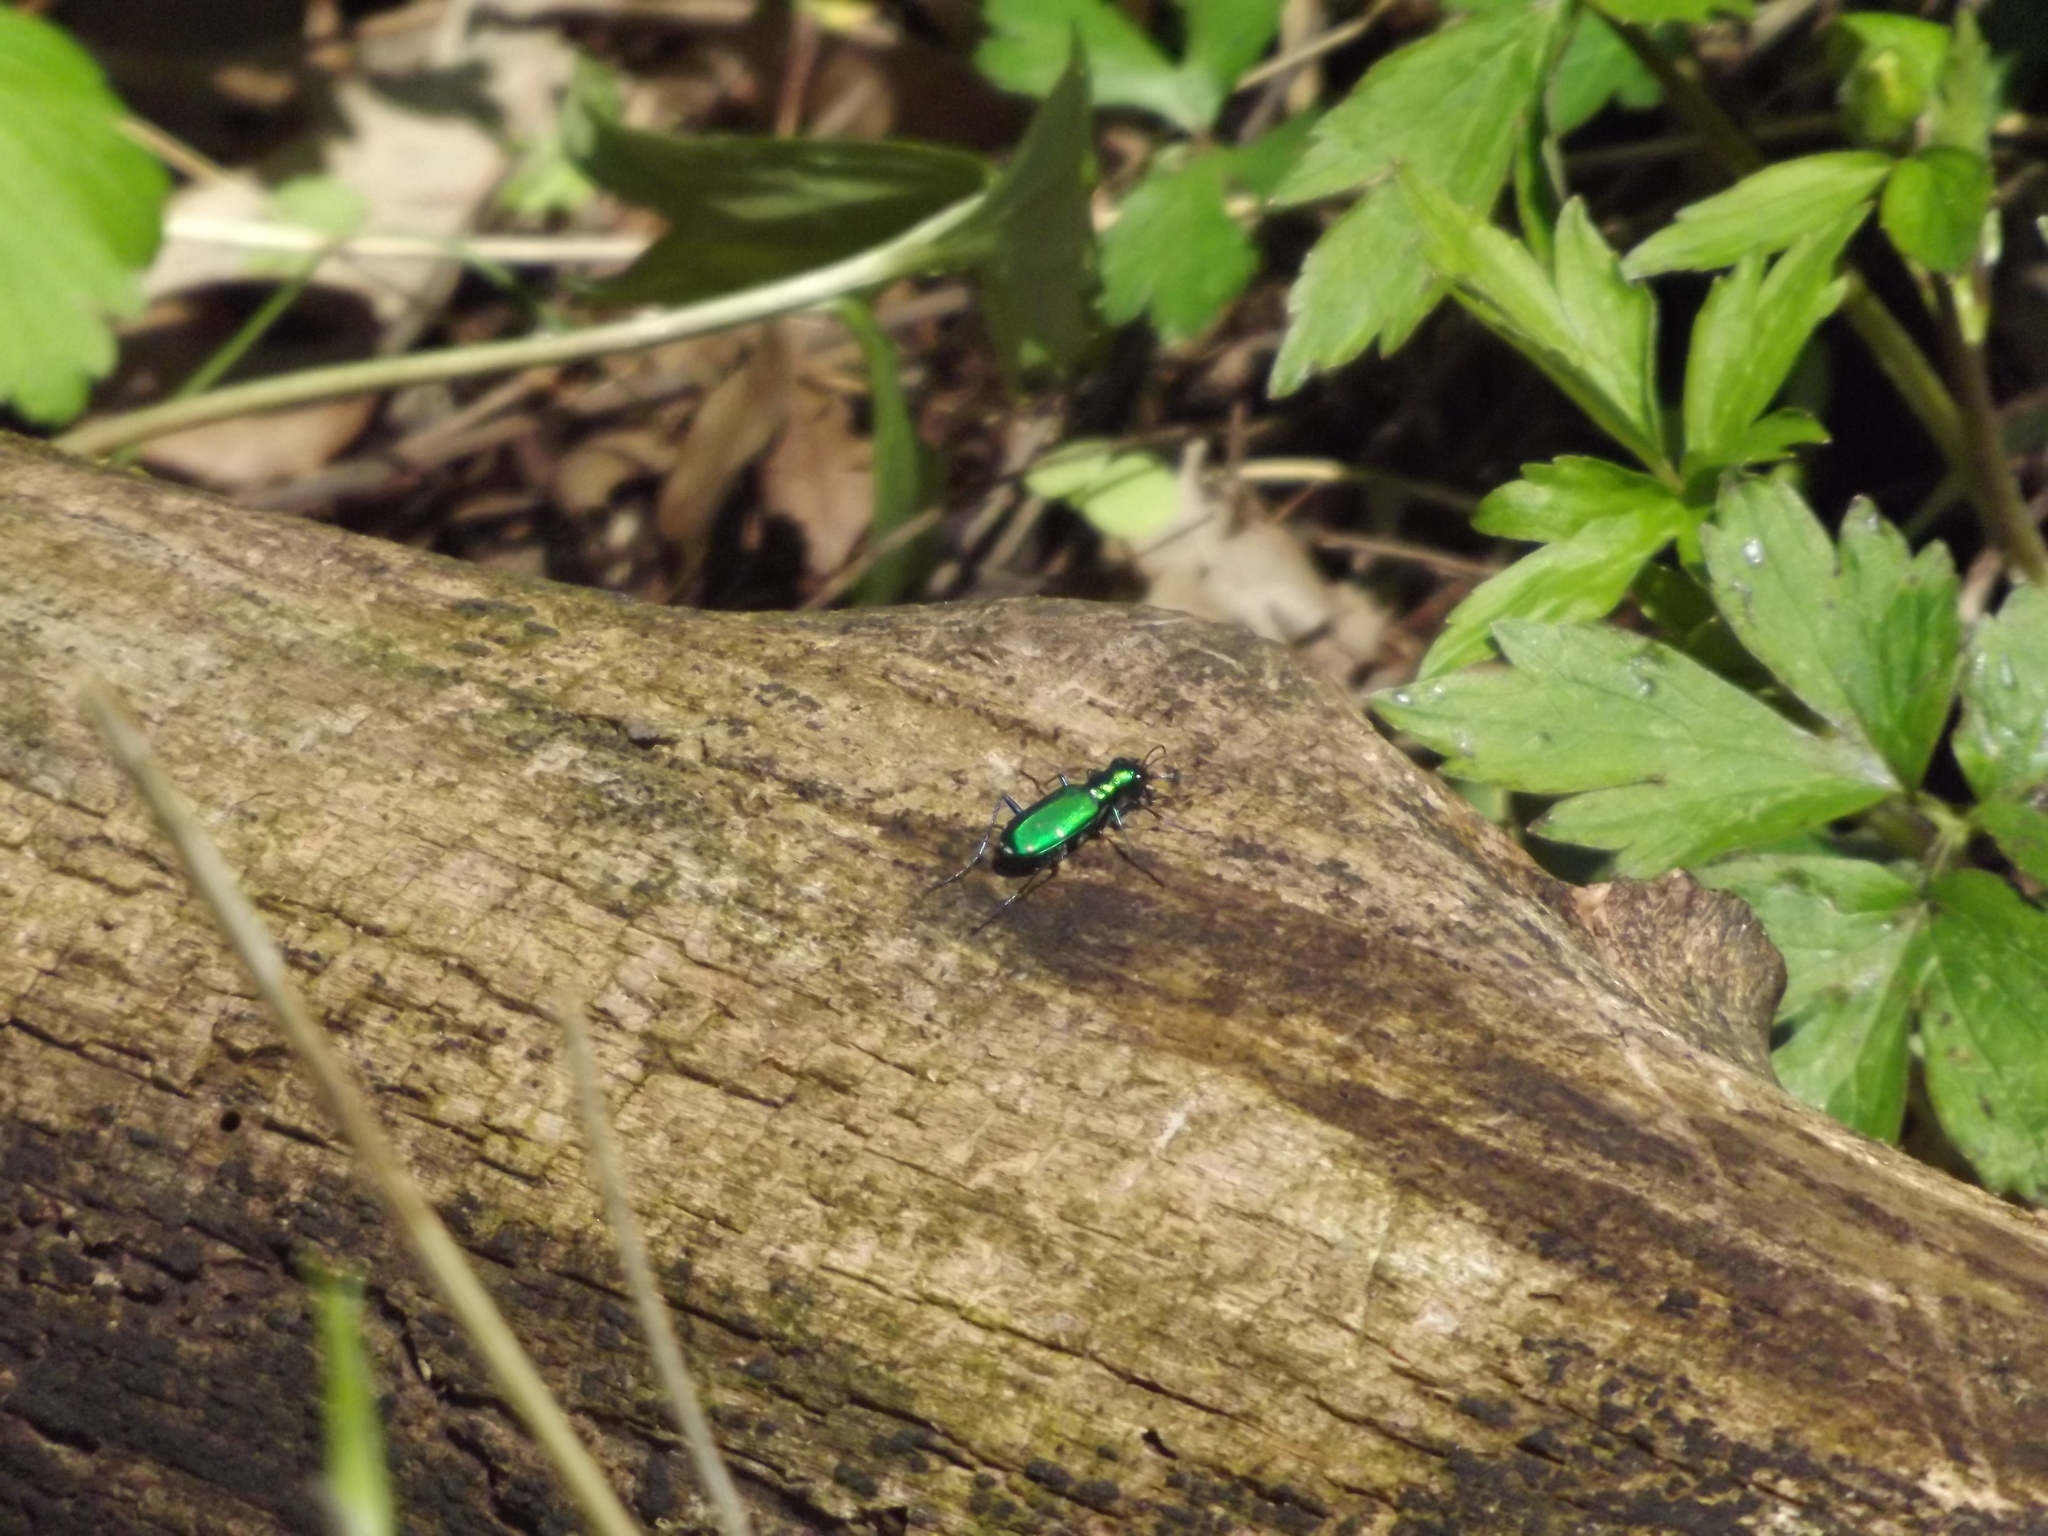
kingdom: Animalia
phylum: Arthropoda
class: Insecta
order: Coleoptera
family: Carabidae
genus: Cicindela
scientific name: Cicindela sexguttata
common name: Six-spotted tiger beetle
